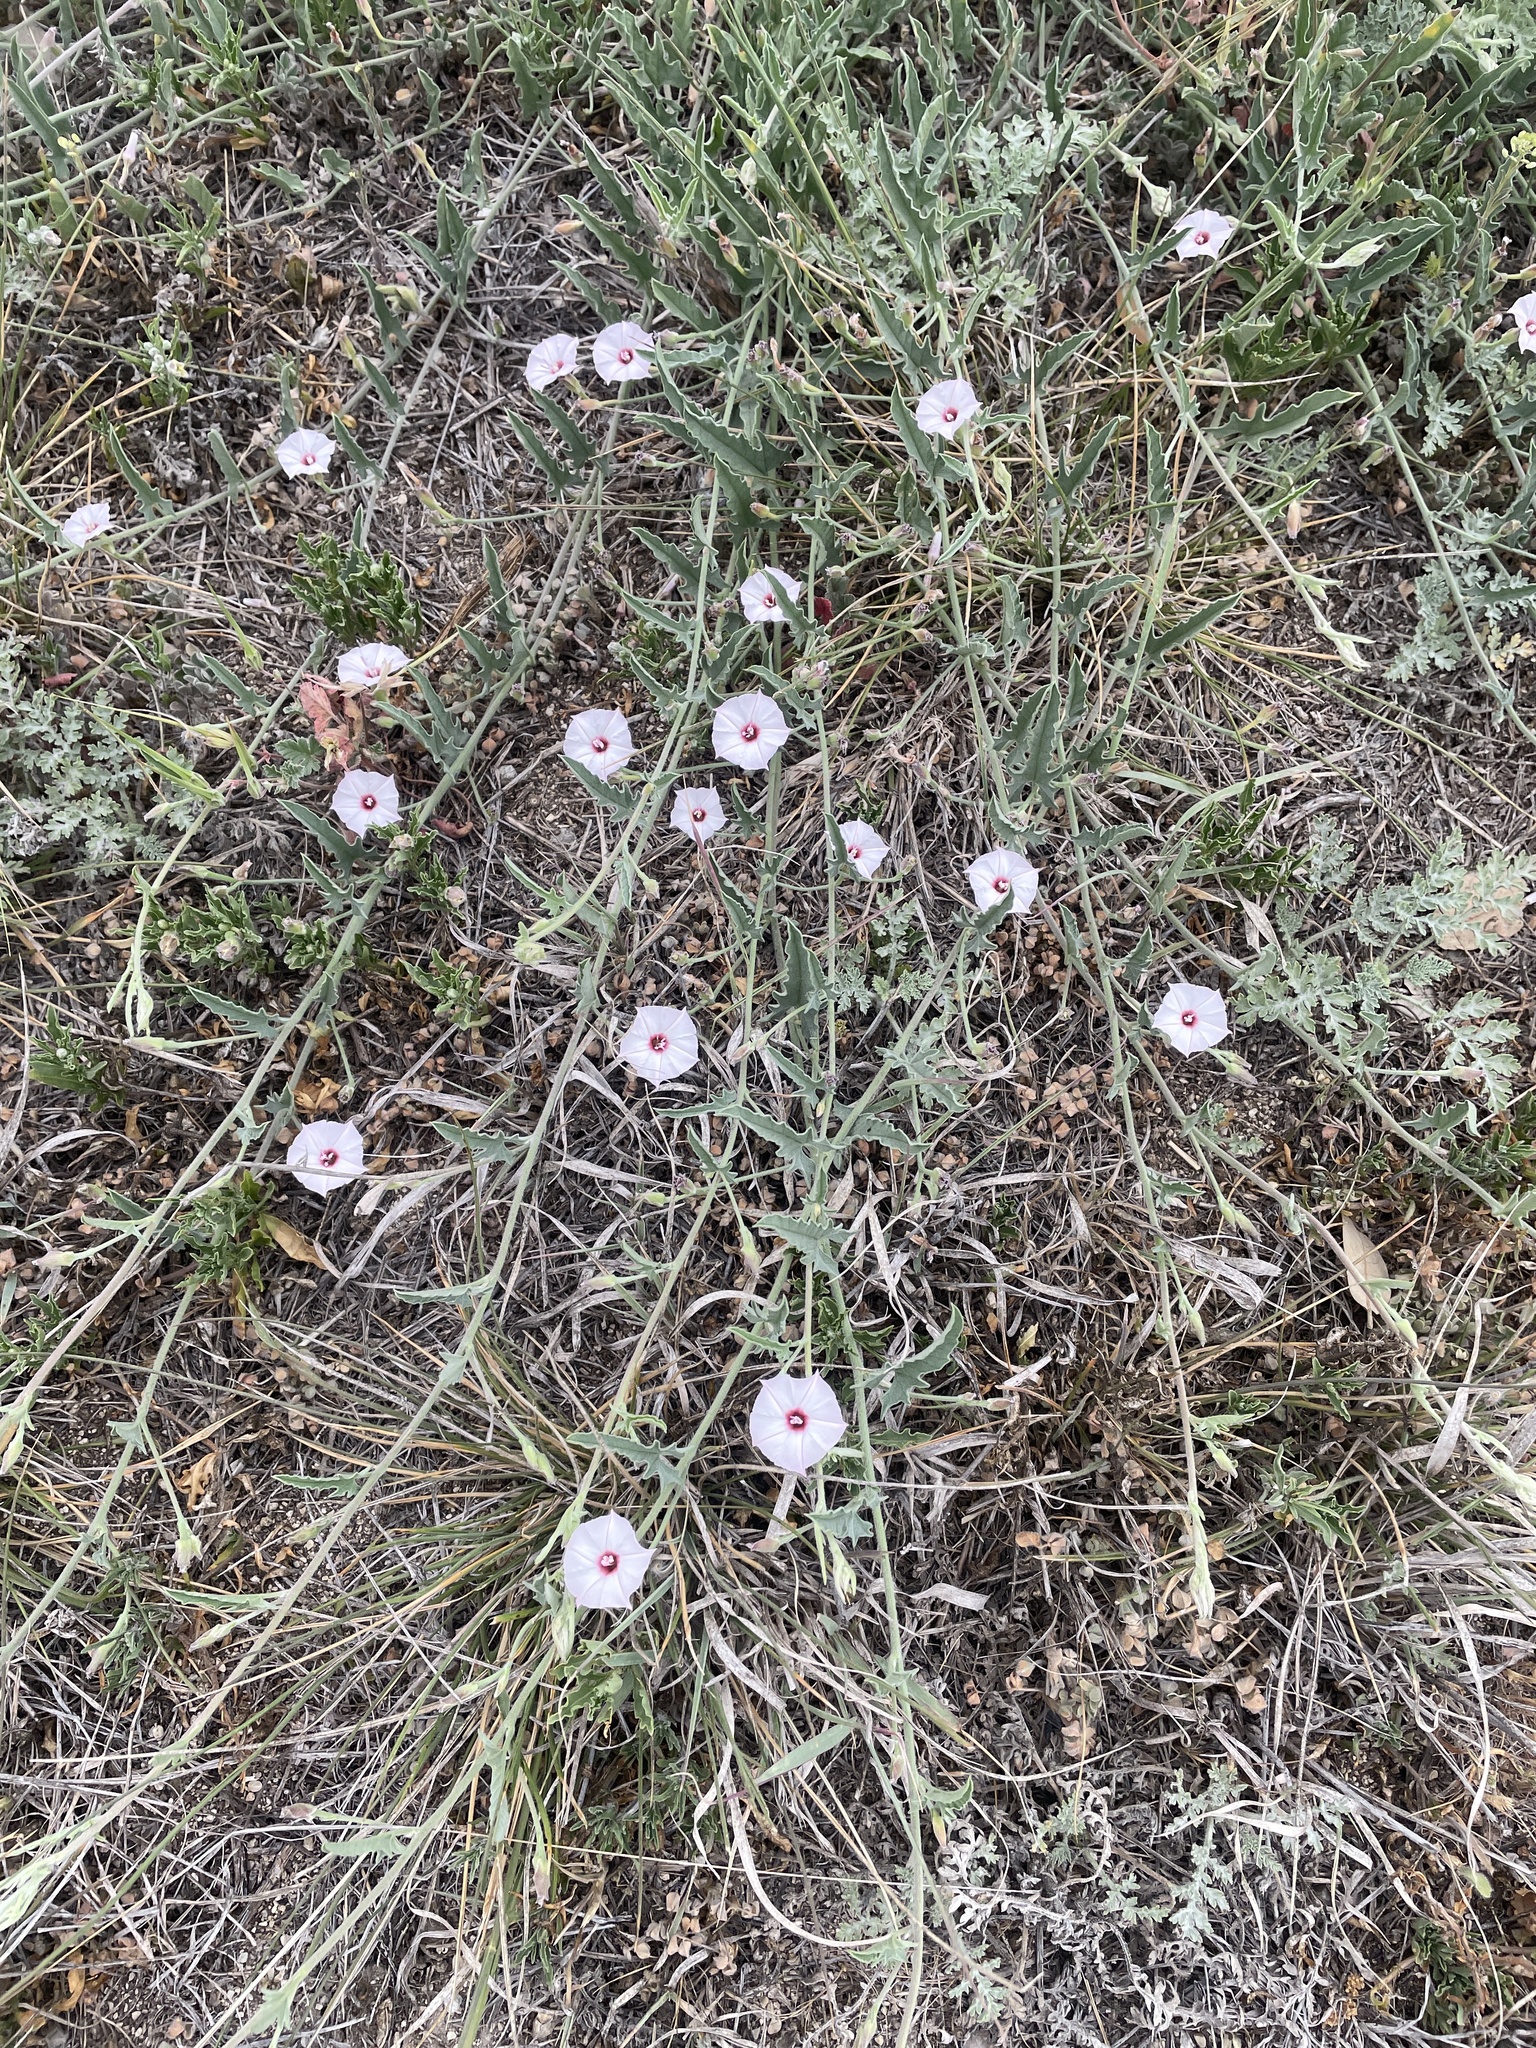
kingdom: Plantae
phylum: Tracheophyta
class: Magnoliopsida
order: Solanales
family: Convolvulaceae
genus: Convolvulus
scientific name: Convolvulus equitans
